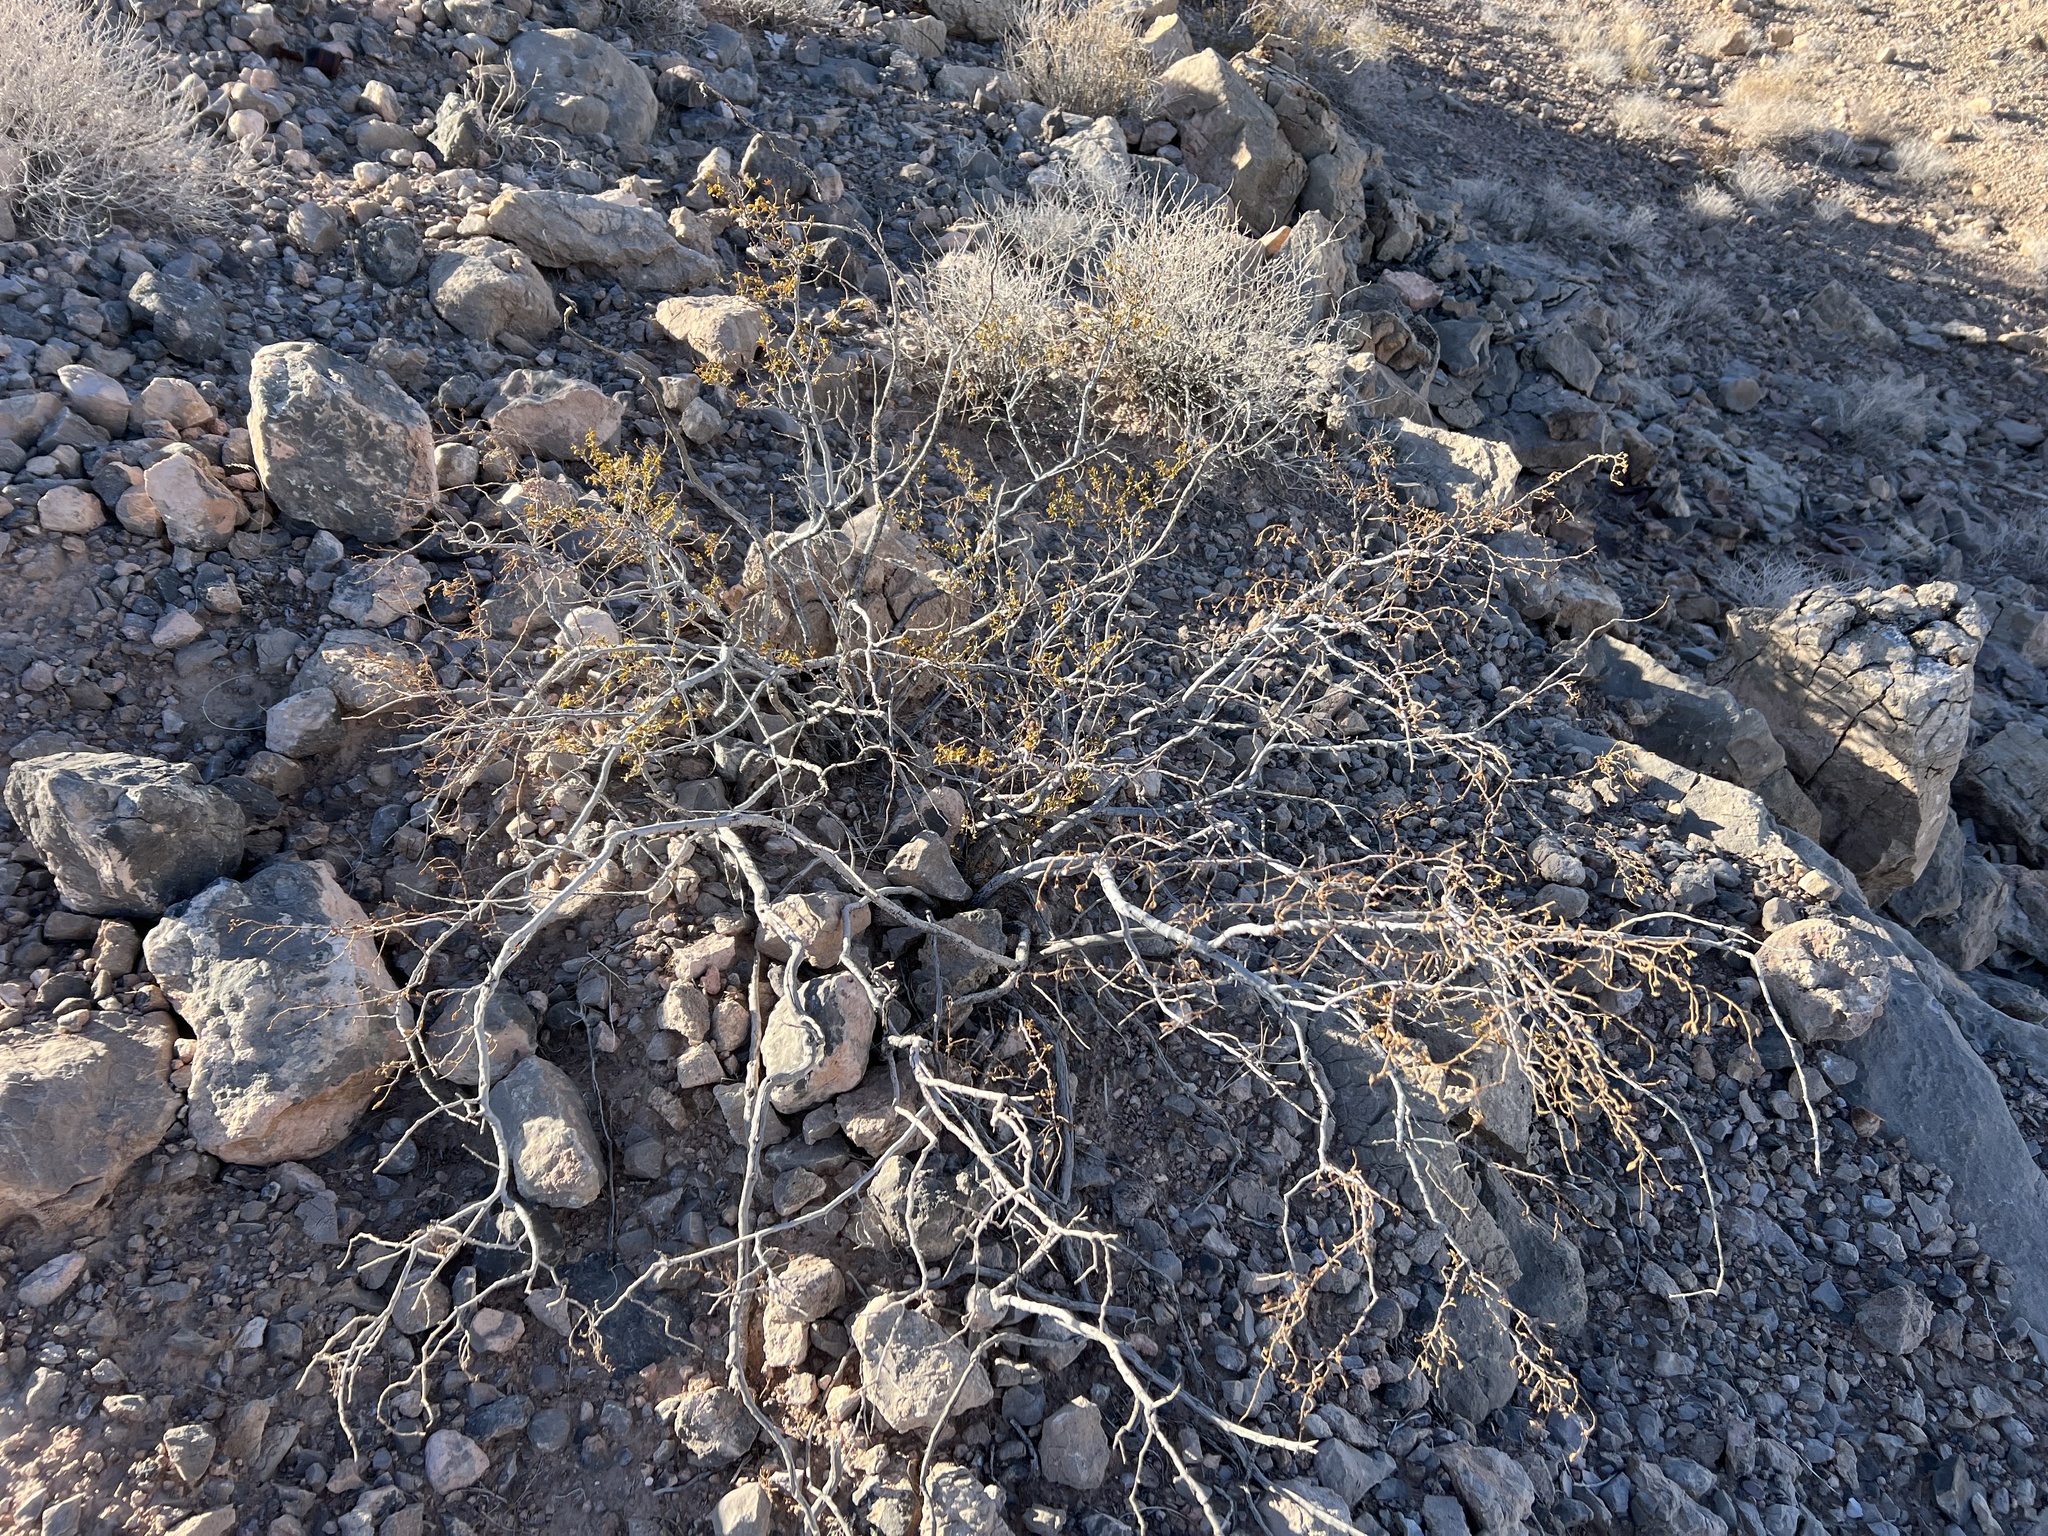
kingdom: Plantae
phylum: Tracheophyta
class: Magnoliopsida
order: Zygophyllales
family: Zygophyllaceae
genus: Larrea
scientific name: Larrea tridentata
